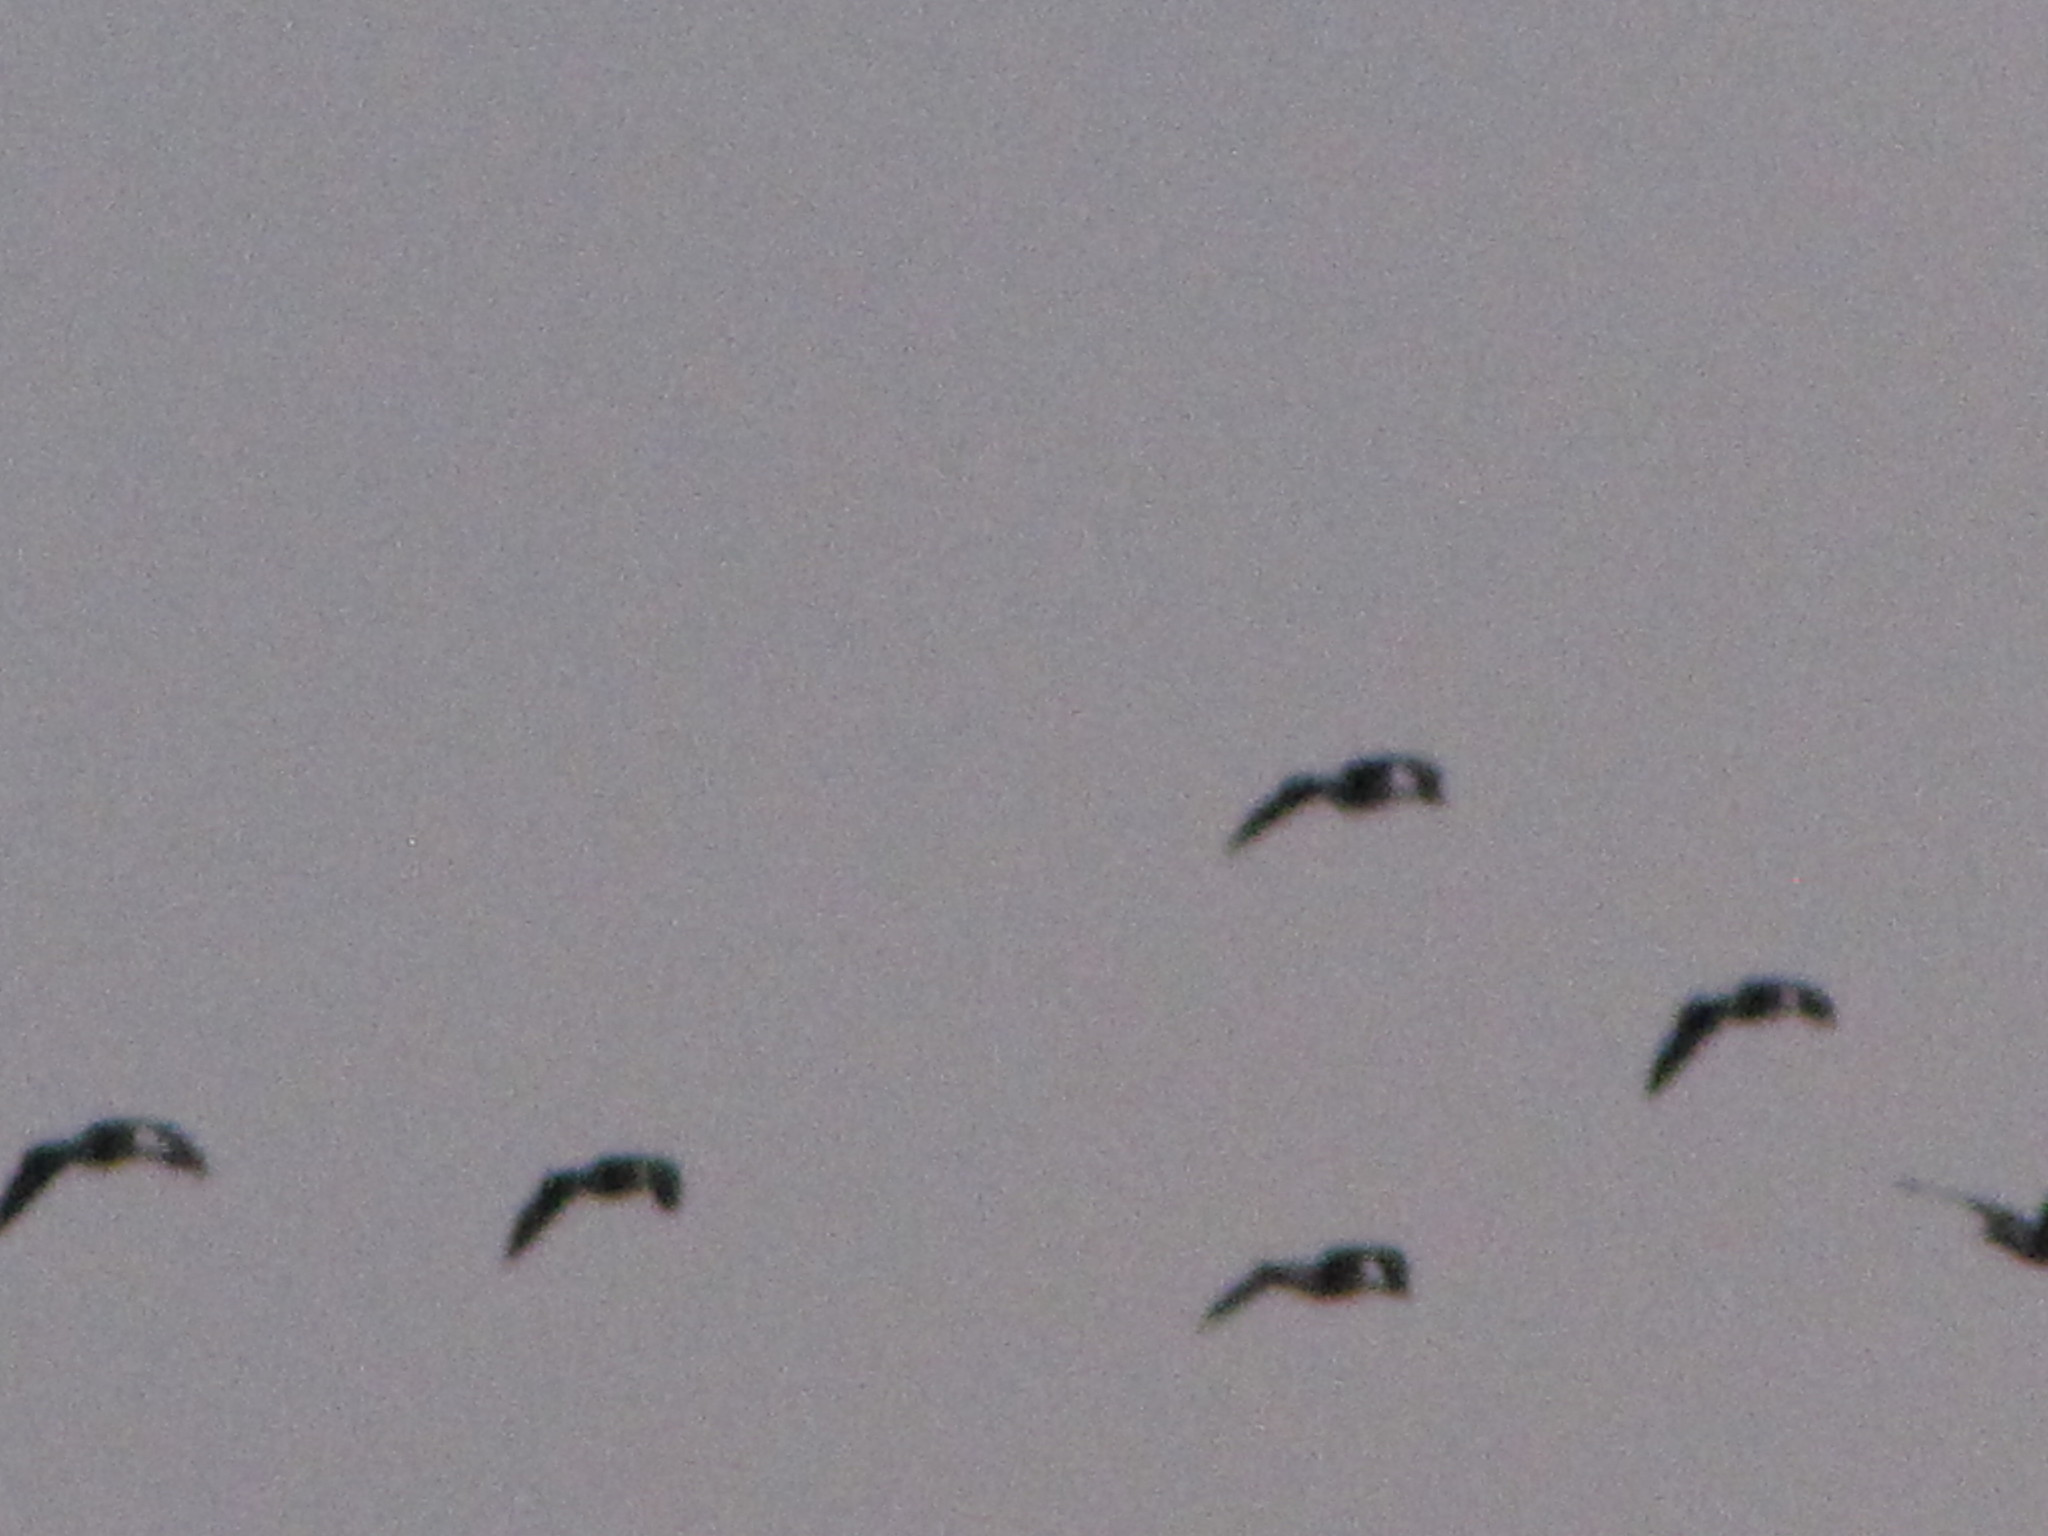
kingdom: Animalia
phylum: Chordata
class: Aves
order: Anseriformes
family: Anatidae
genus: Branta
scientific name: Branta canadensis
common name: Canada goose
